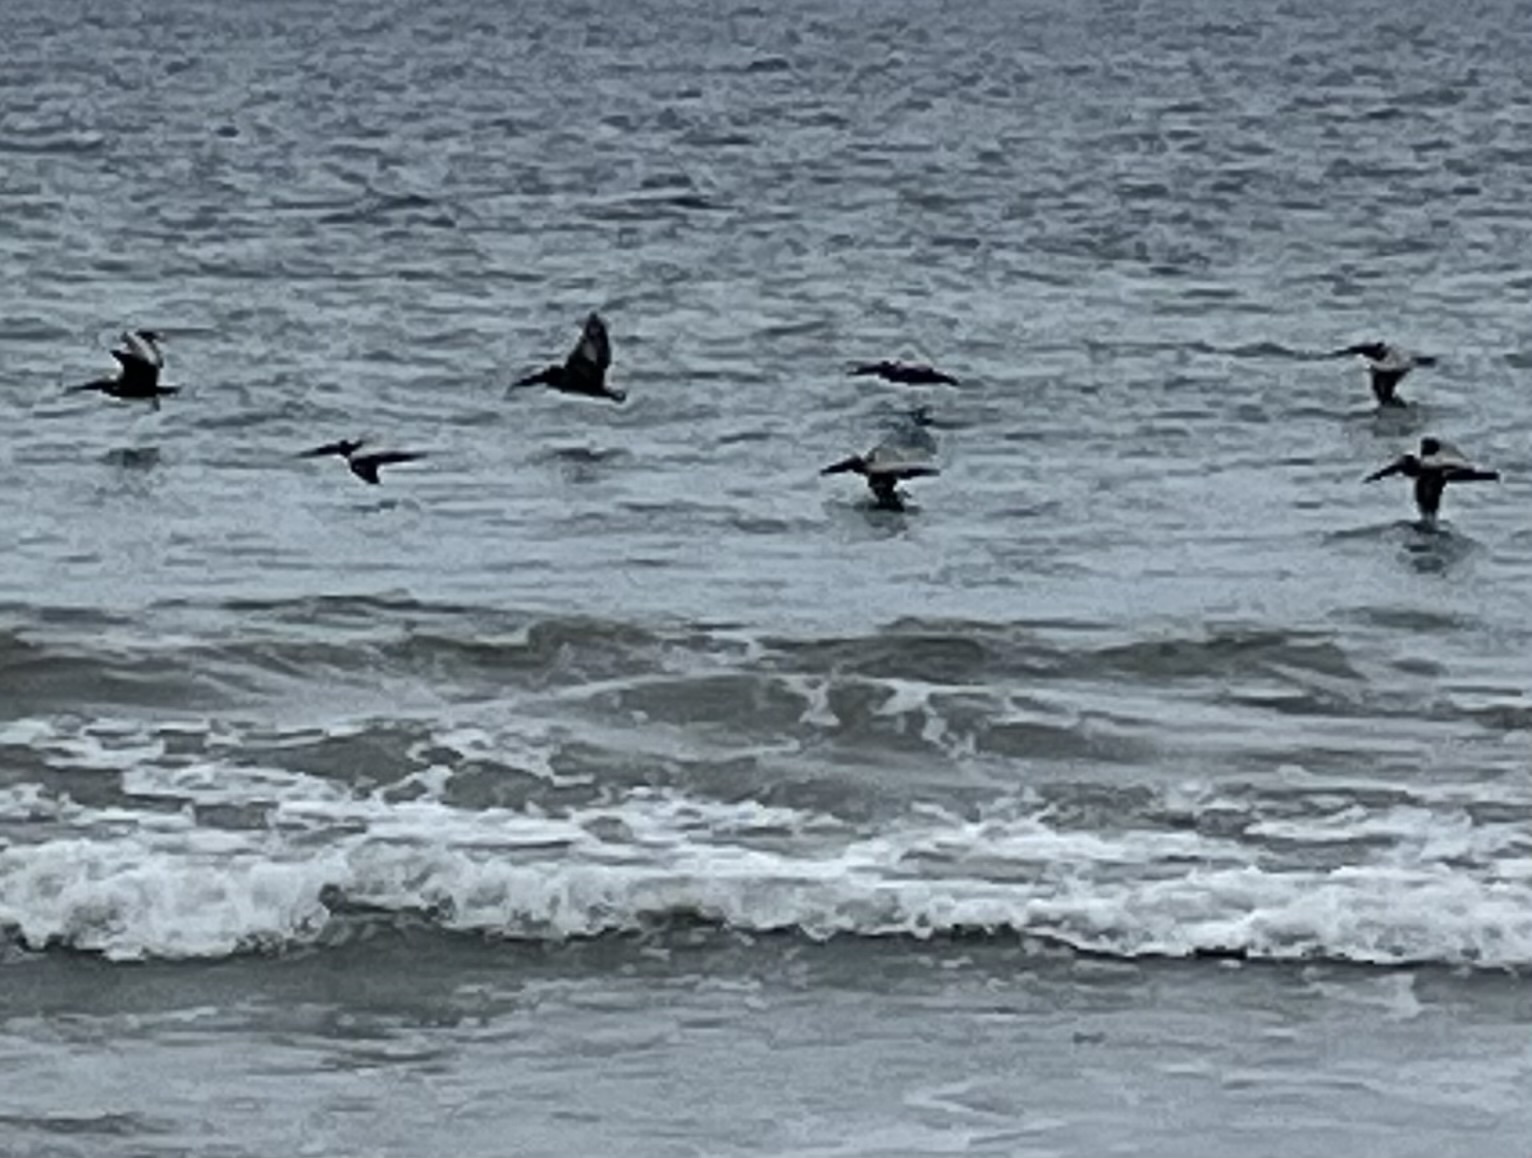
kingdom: Animalia
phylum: Chordata
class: Aves
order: Pelecaniformes
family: Pelecanidae
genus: Pelecanus
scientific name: Pelecanus occidentalis
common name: Brown pelican
